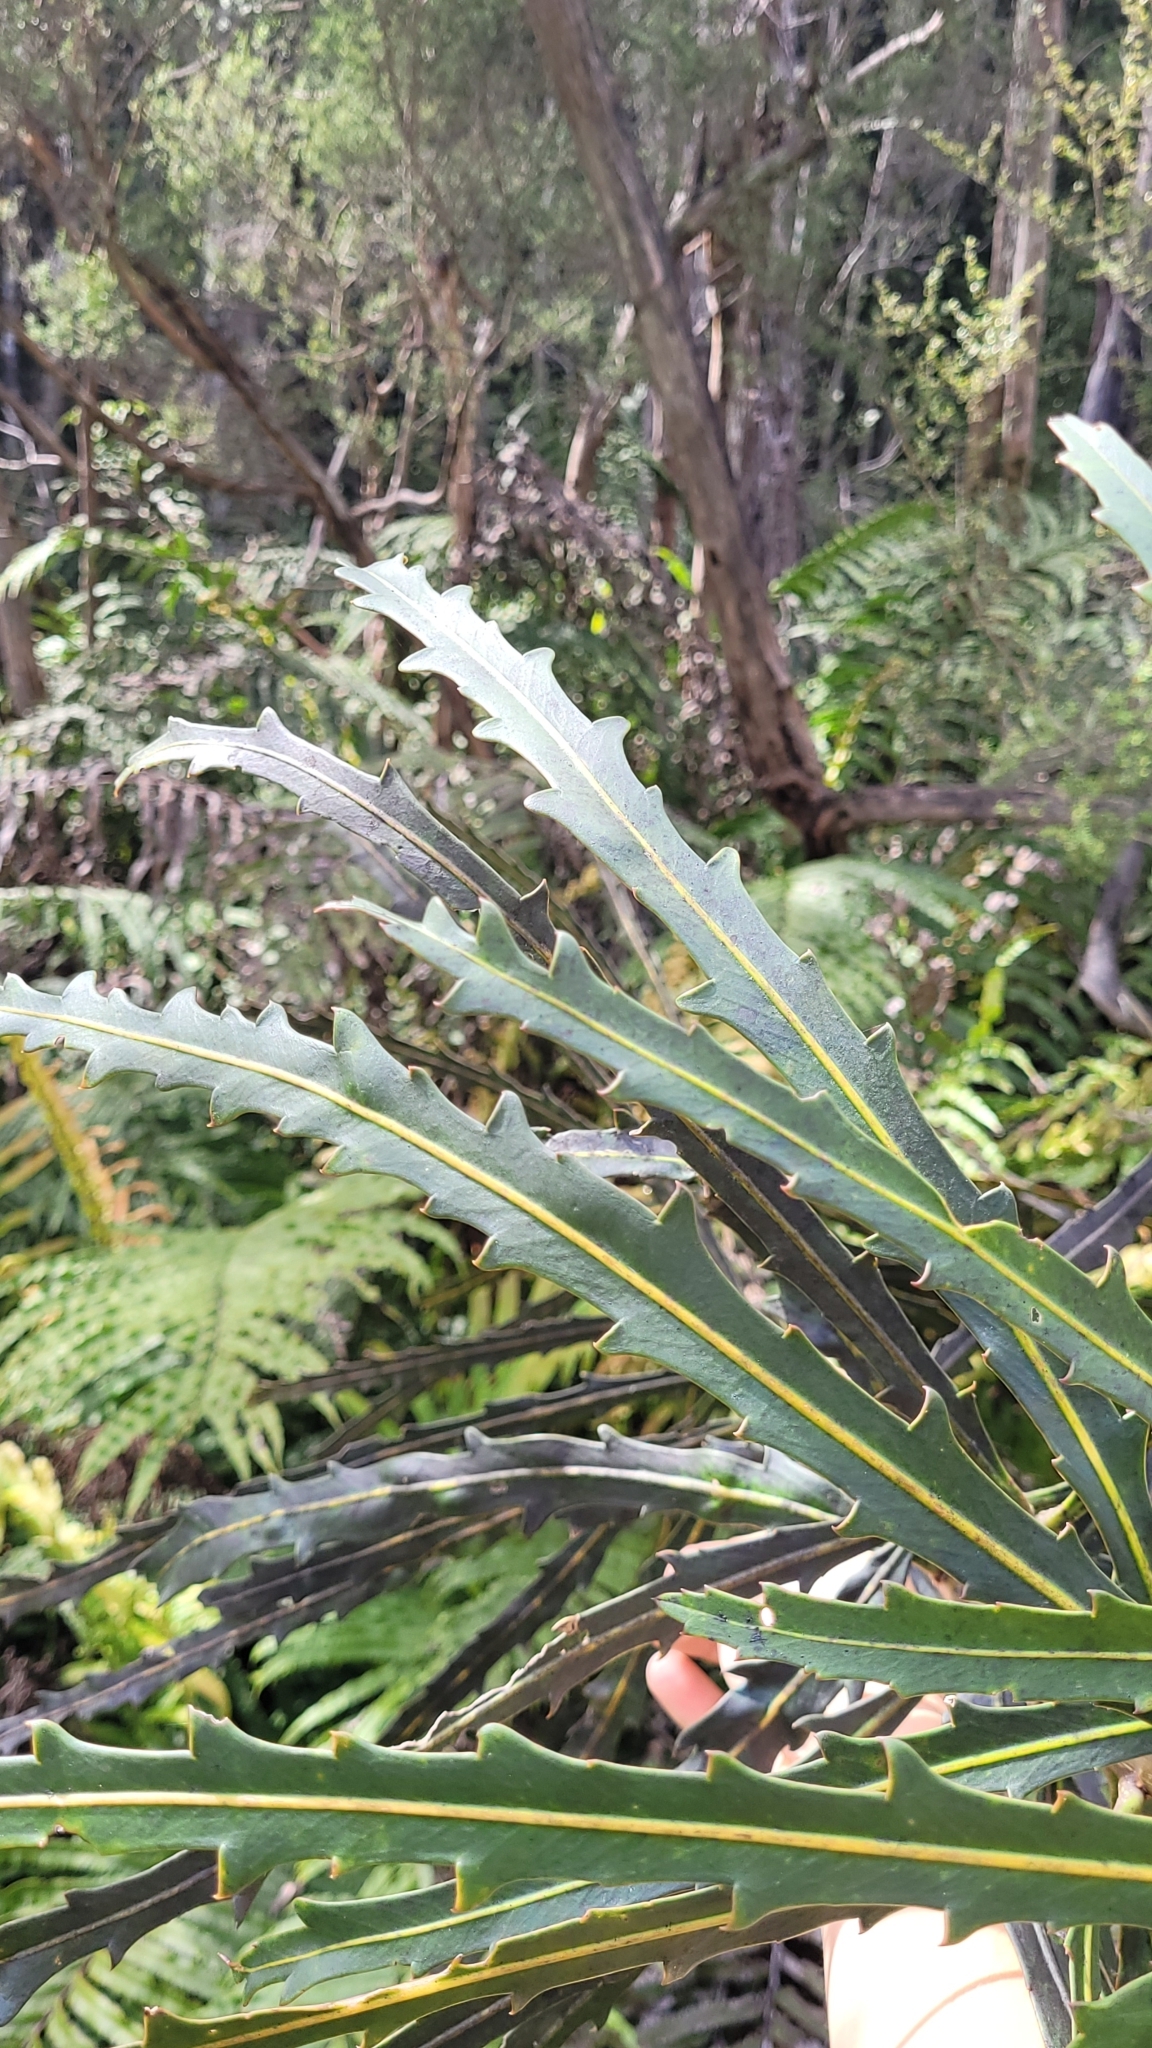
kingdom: Plantae
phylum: Tracheophyta
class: Magnoliopsida
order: Apiales
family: Araliaceae
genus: Pseudopanax
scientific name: Pseudopanax crassifolius
